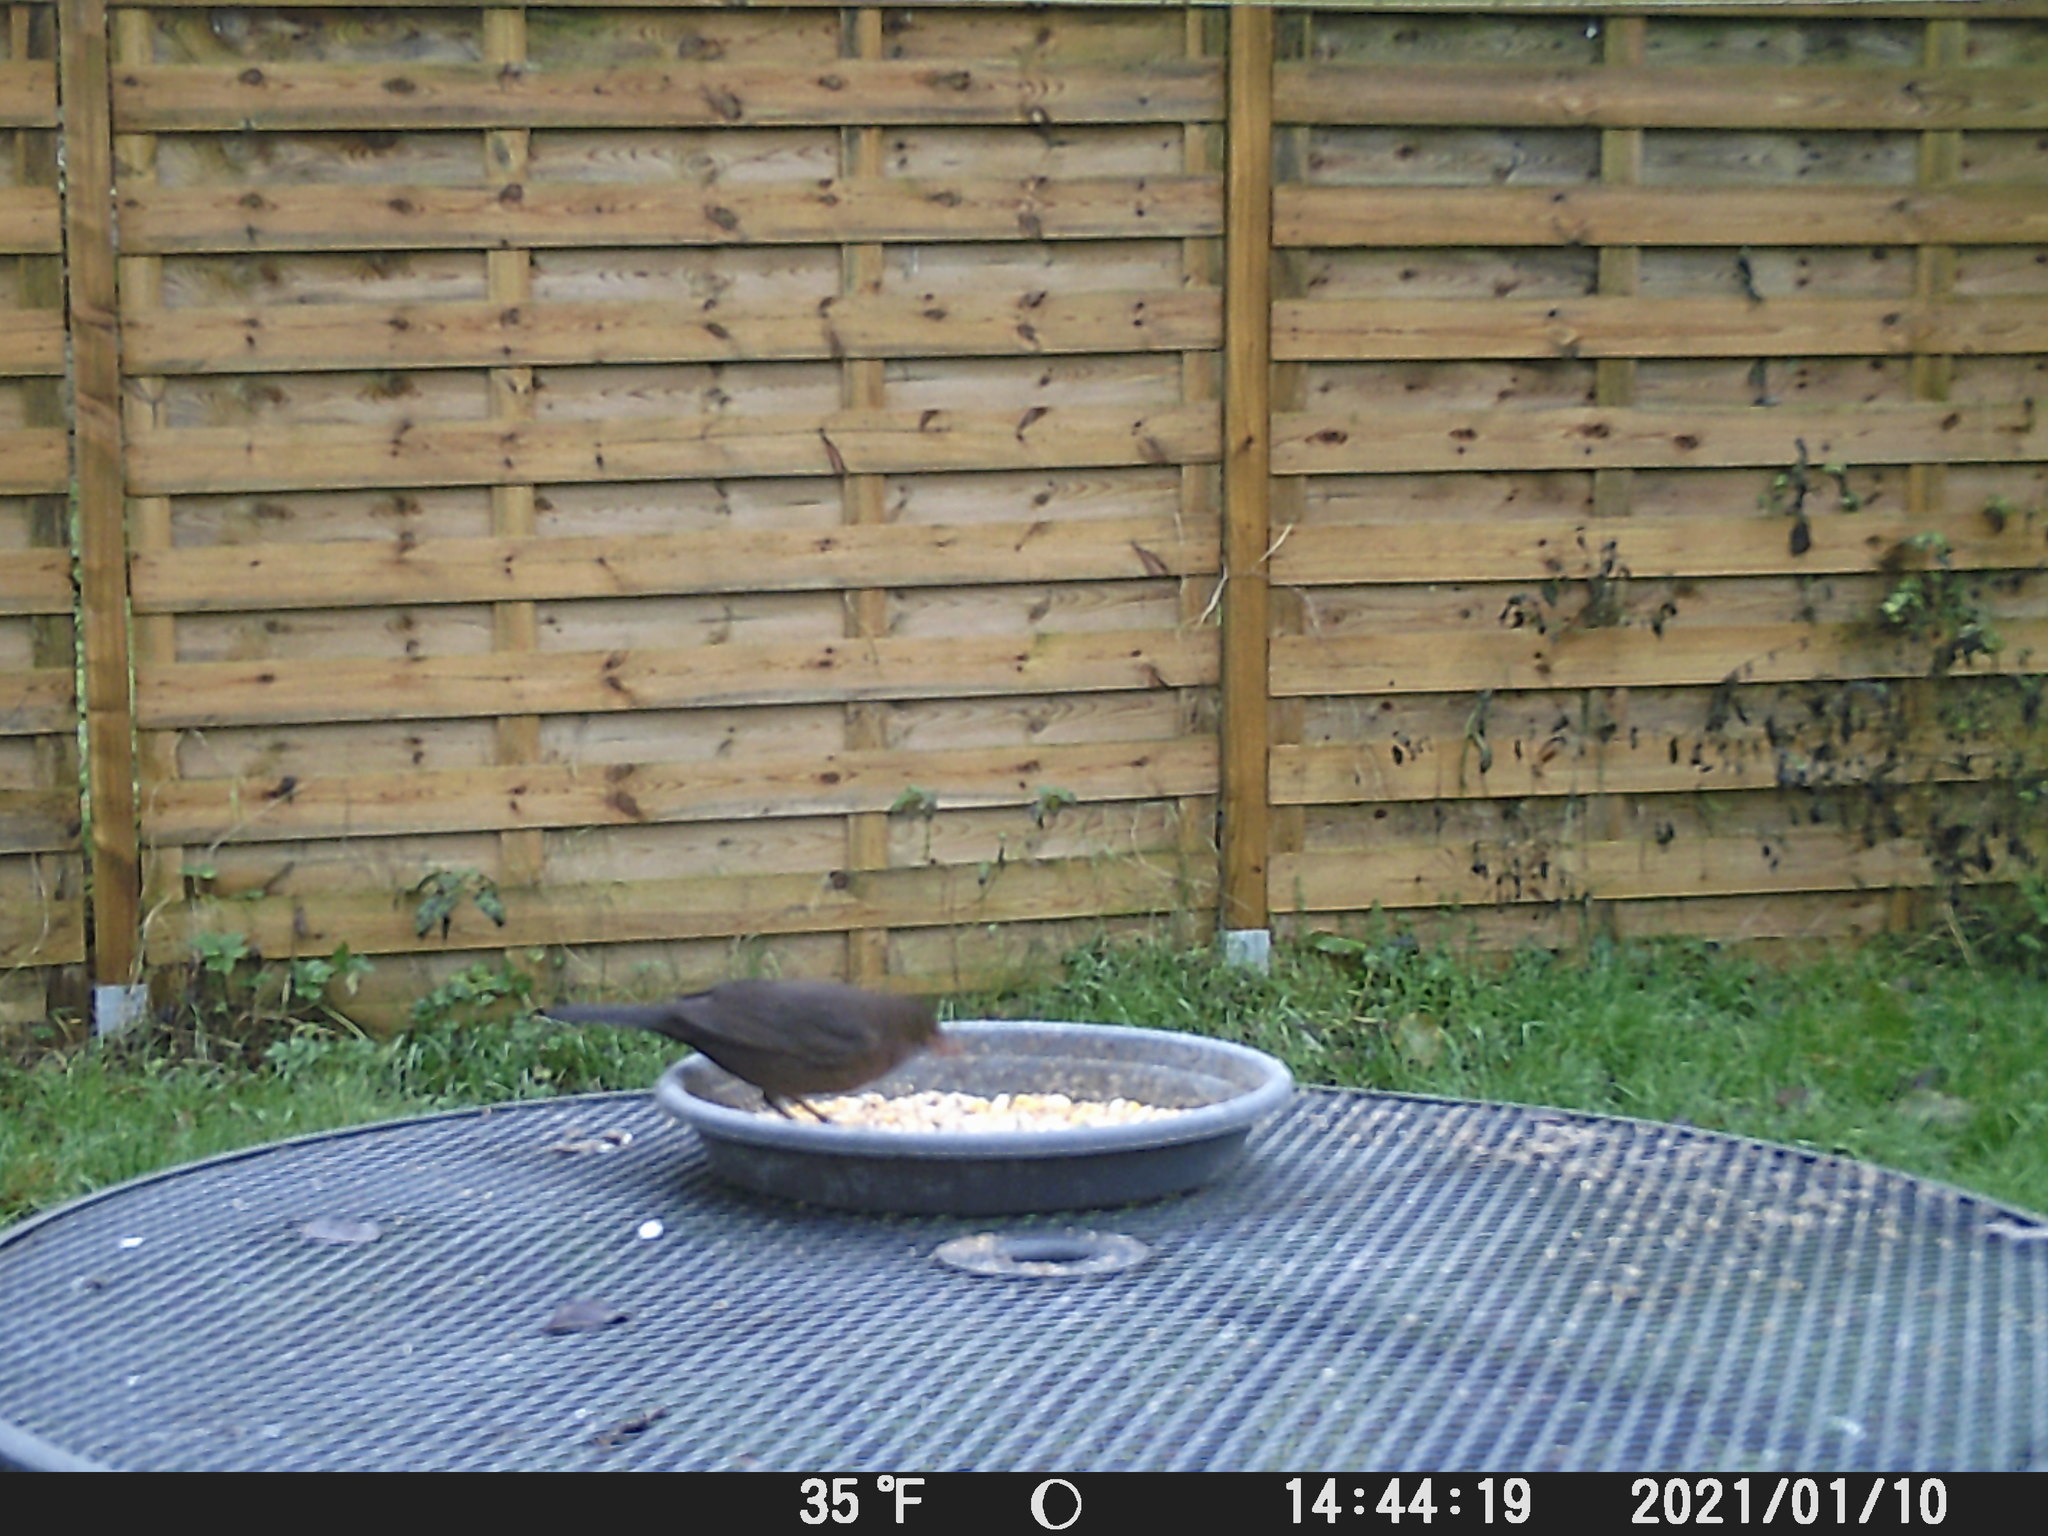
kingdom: Animalia
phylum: Chordata
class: Aves
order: Passeriformes
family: Turdidae
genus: Turdus
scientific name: Turdus merula
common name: Common blackbird
